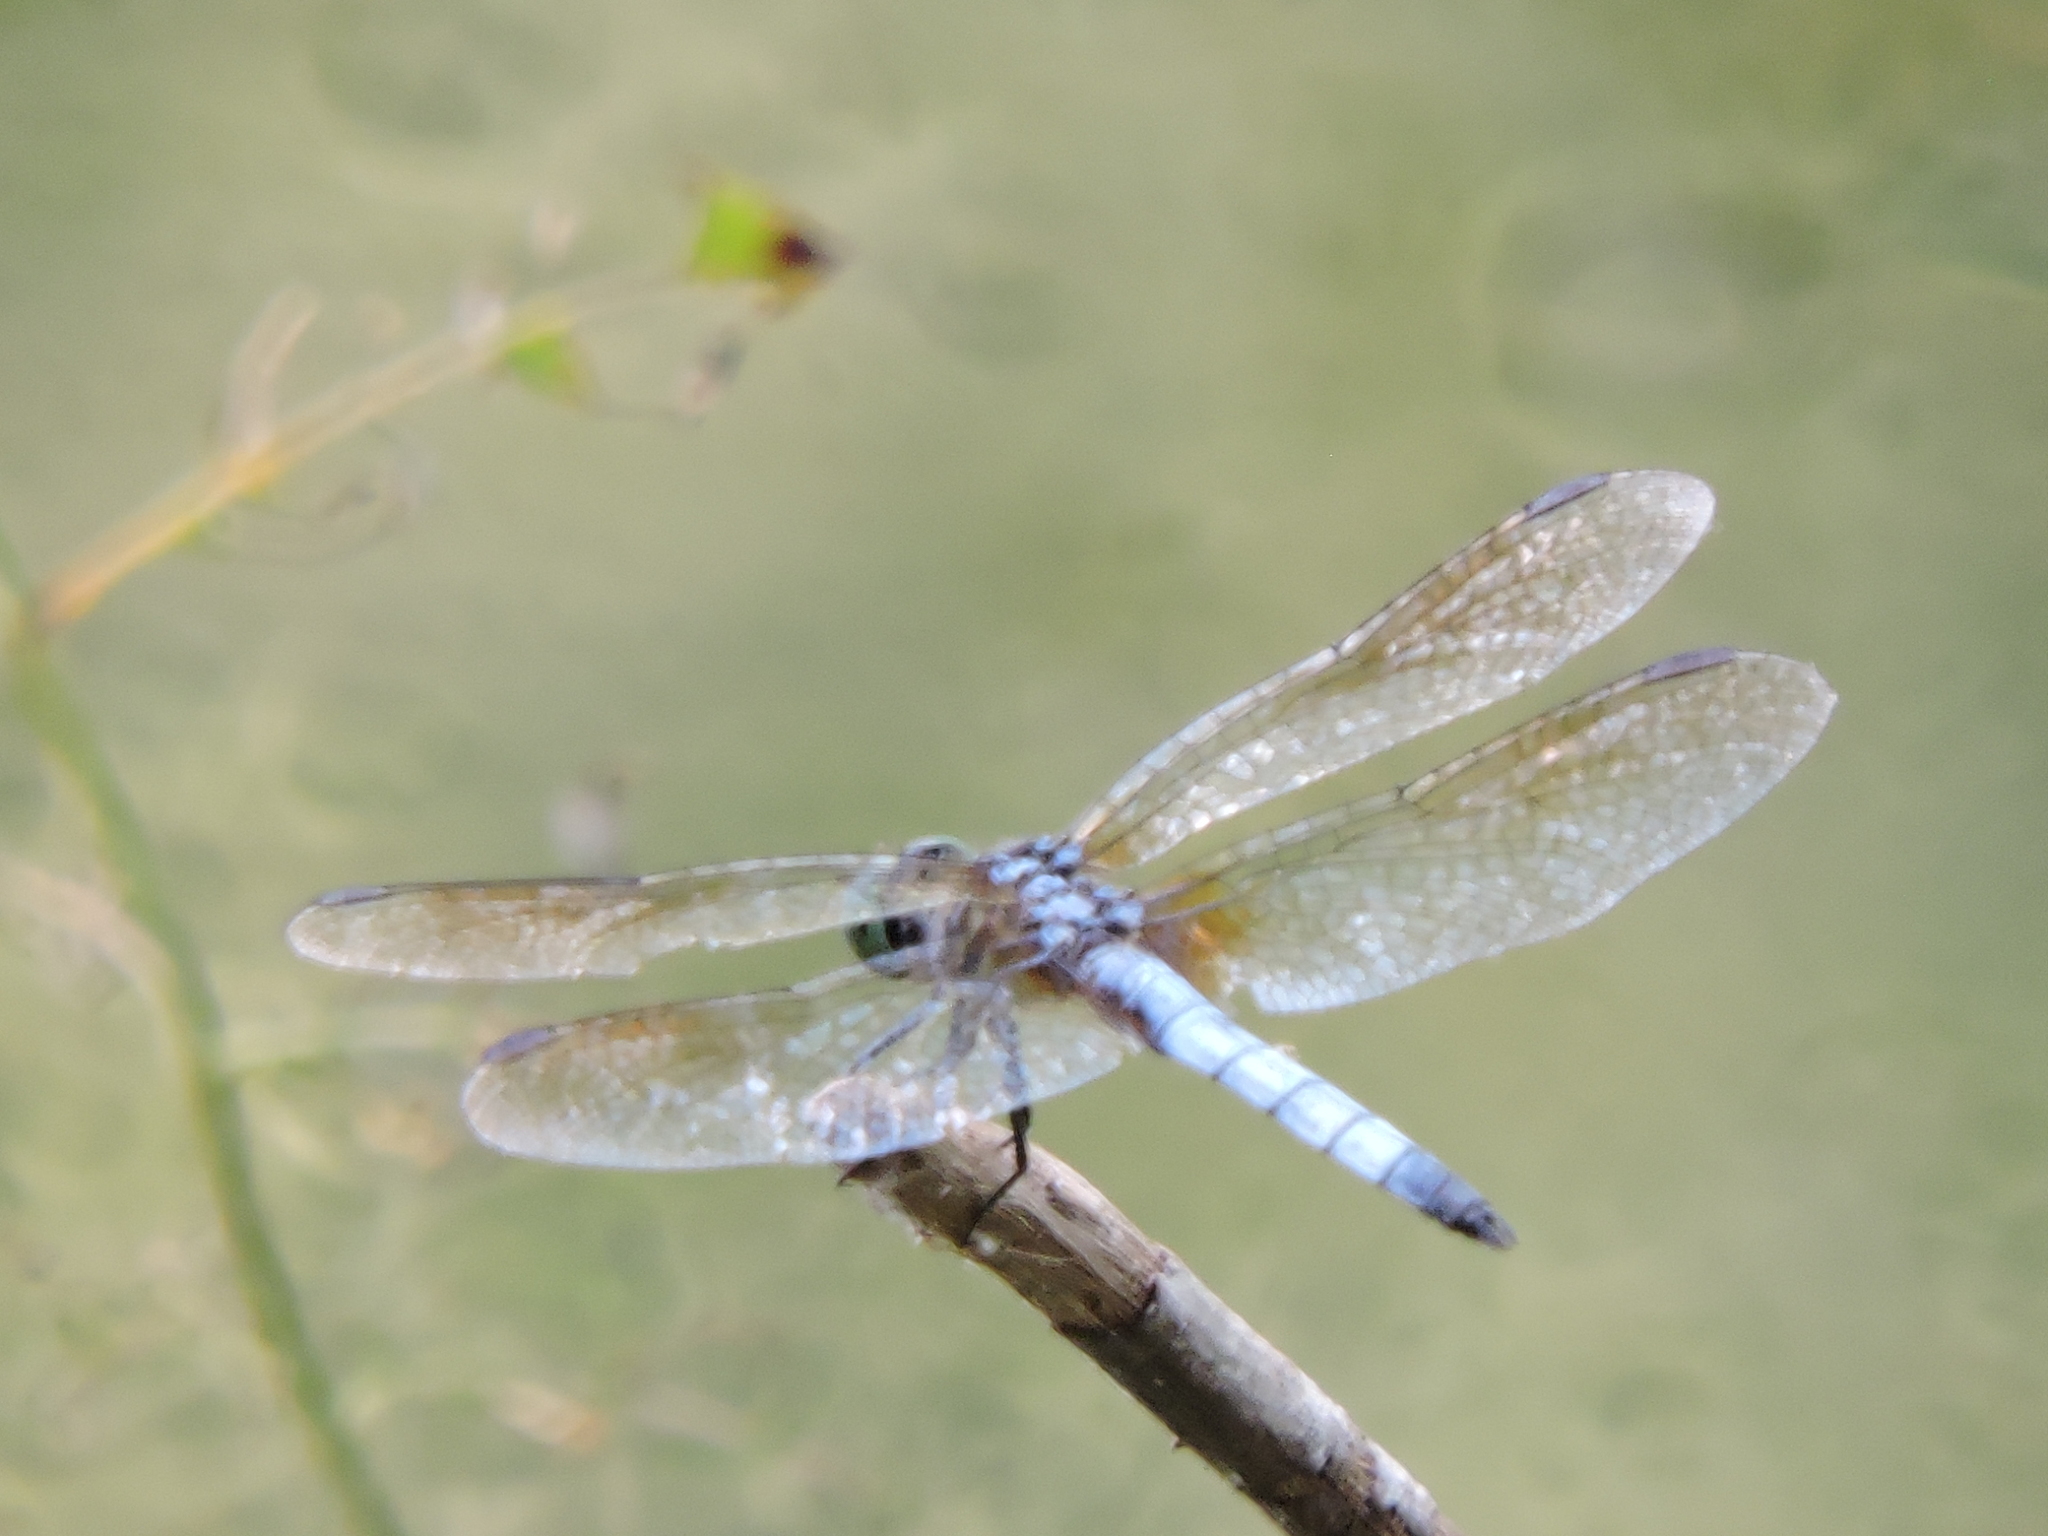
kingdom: Animalia
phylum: Arthropoda
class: Insecta
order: Odonata
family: Libellulidae
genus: Pachydiplax
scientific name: Pachydiplax longipennis
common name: Blue dasher
